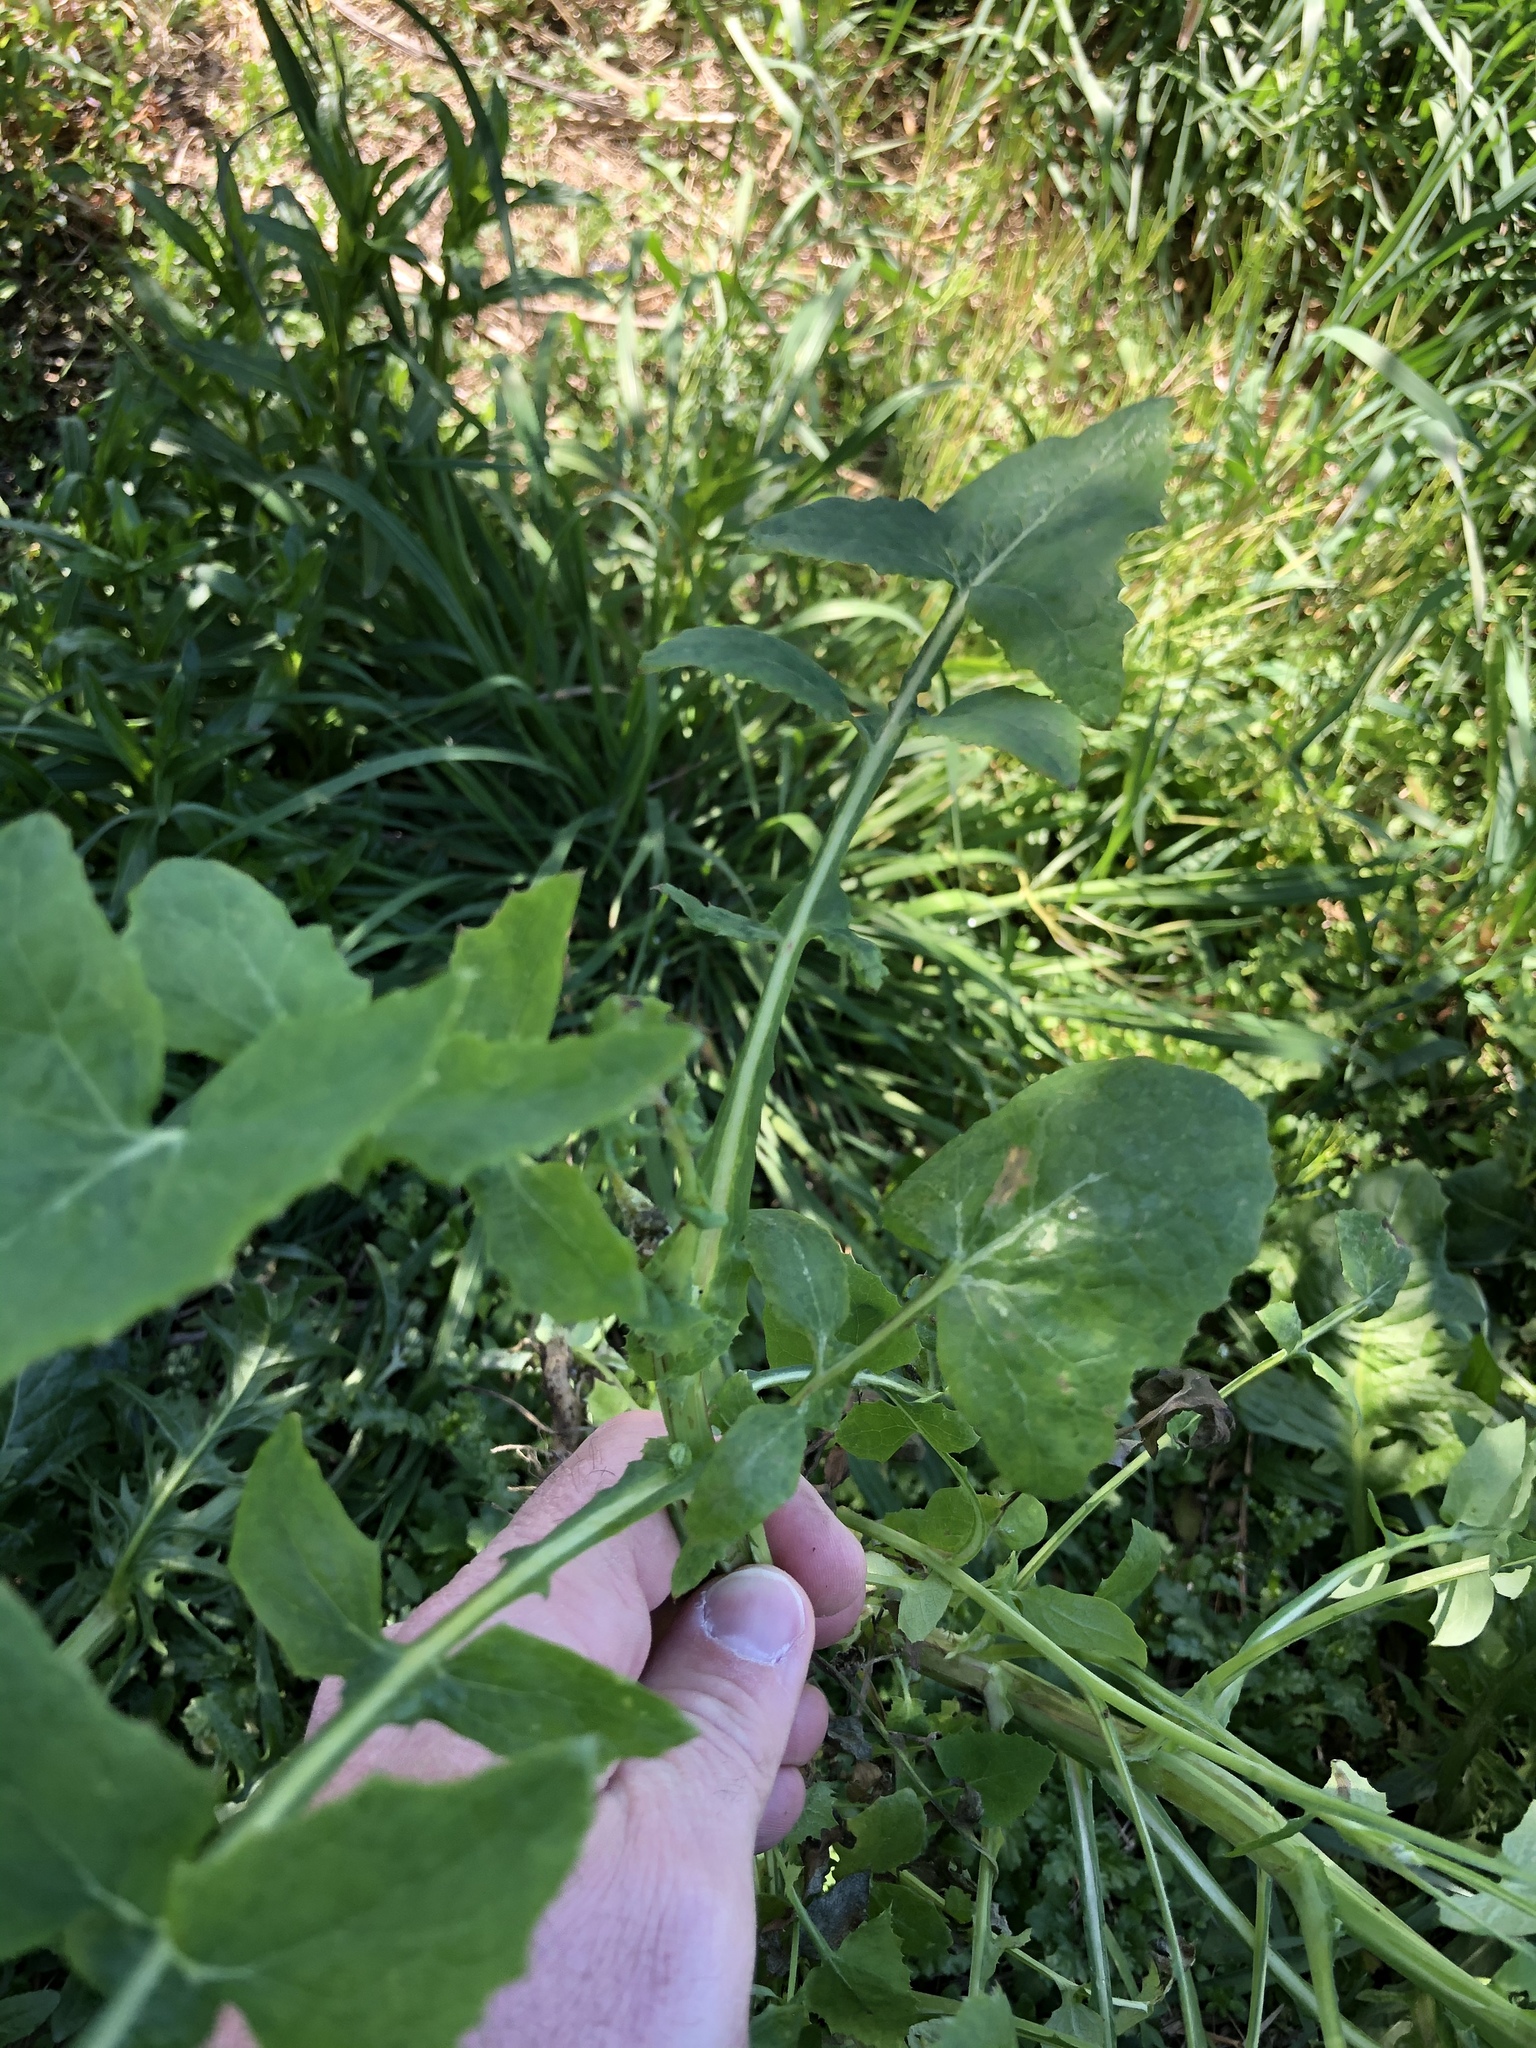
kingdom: Plantae
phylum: Tracheophyta
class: Magnoliopsida
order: Asterales
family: Asteraceae
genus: Sonchus
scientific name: Sonchus oleraceus
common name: Common sowthistle
